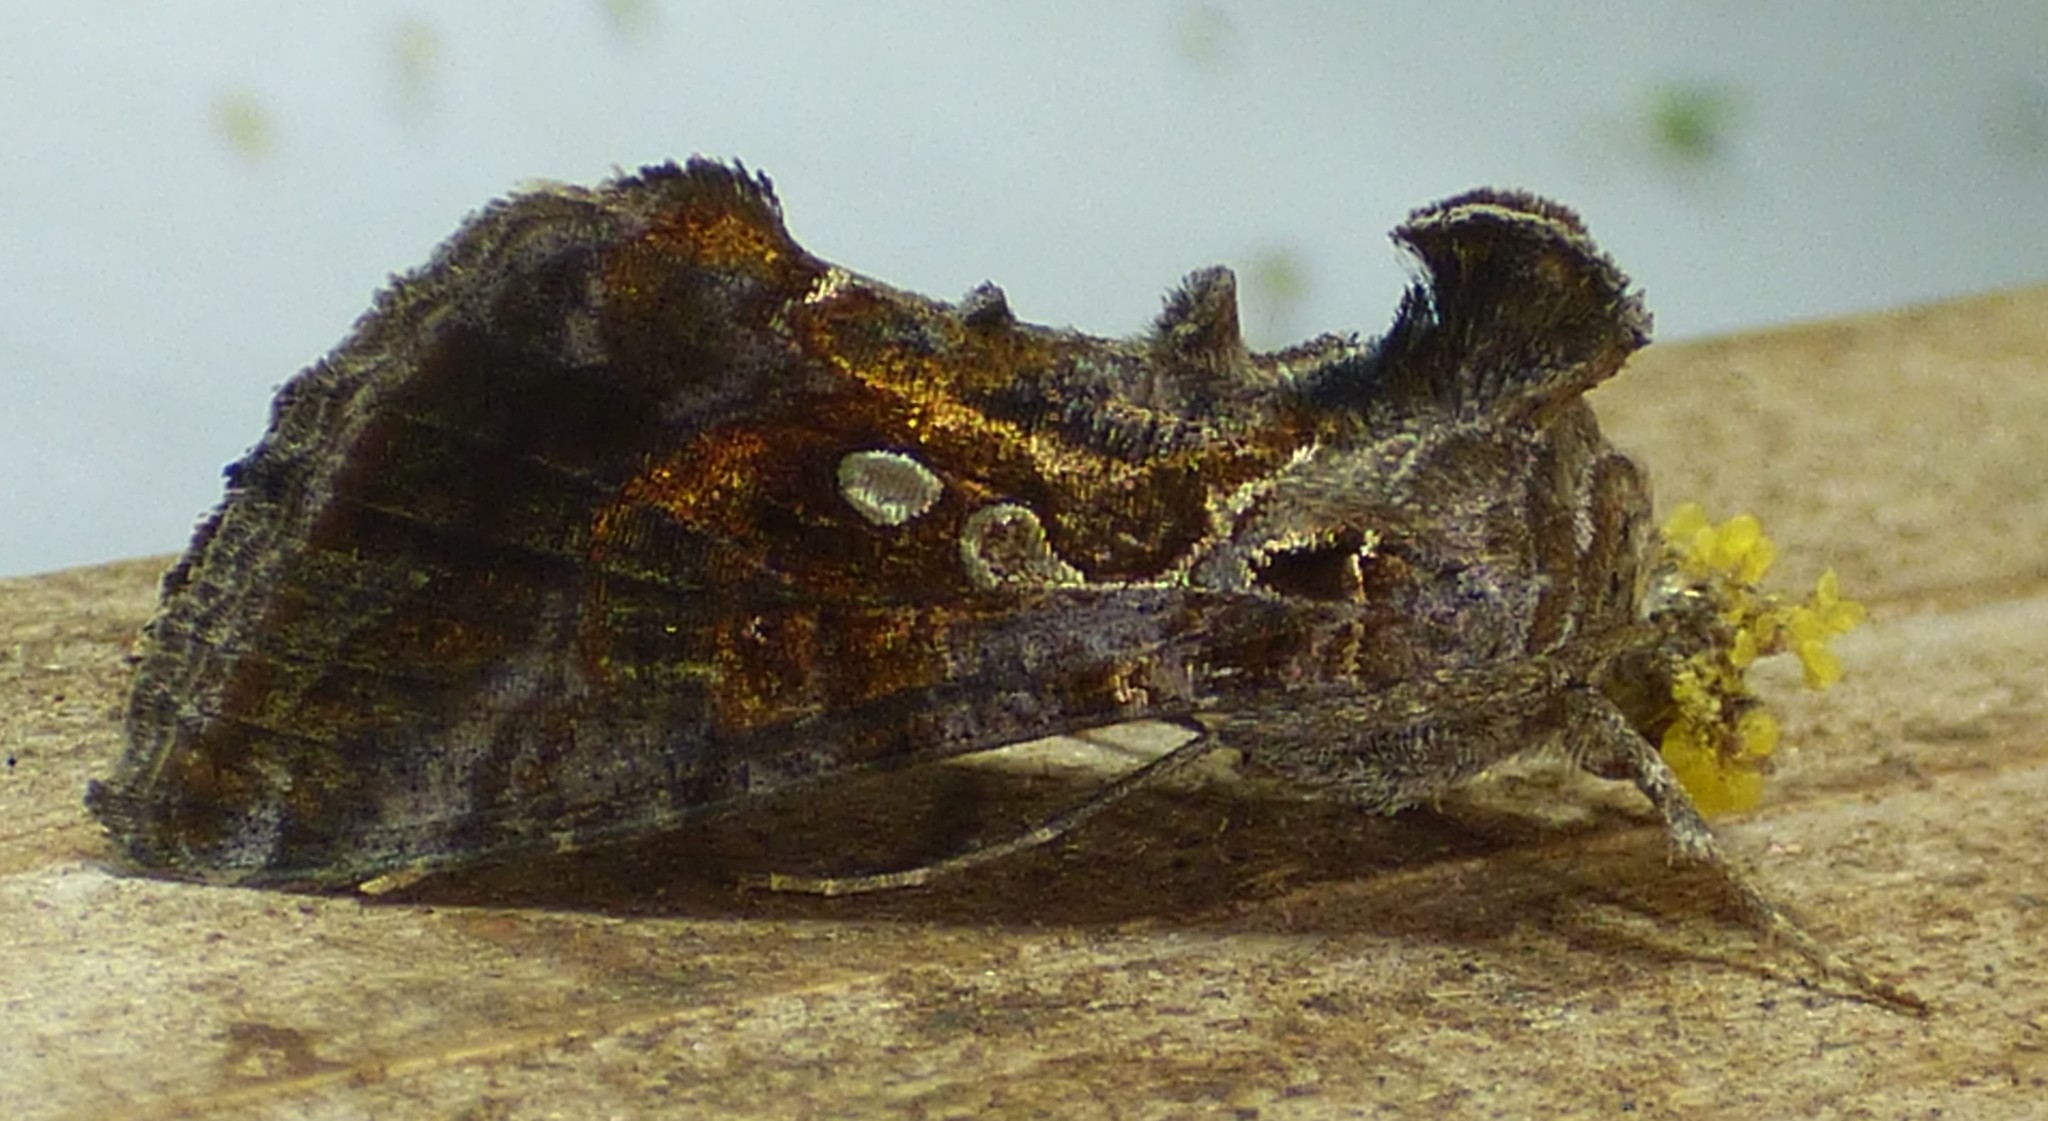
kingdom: Animalia
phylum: Arthropoda
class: Insecta
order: Lepidoptera
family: Noctuidae
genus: Chrysodeixis
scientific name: Chrysodeixis includens
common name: Cutworm moth
